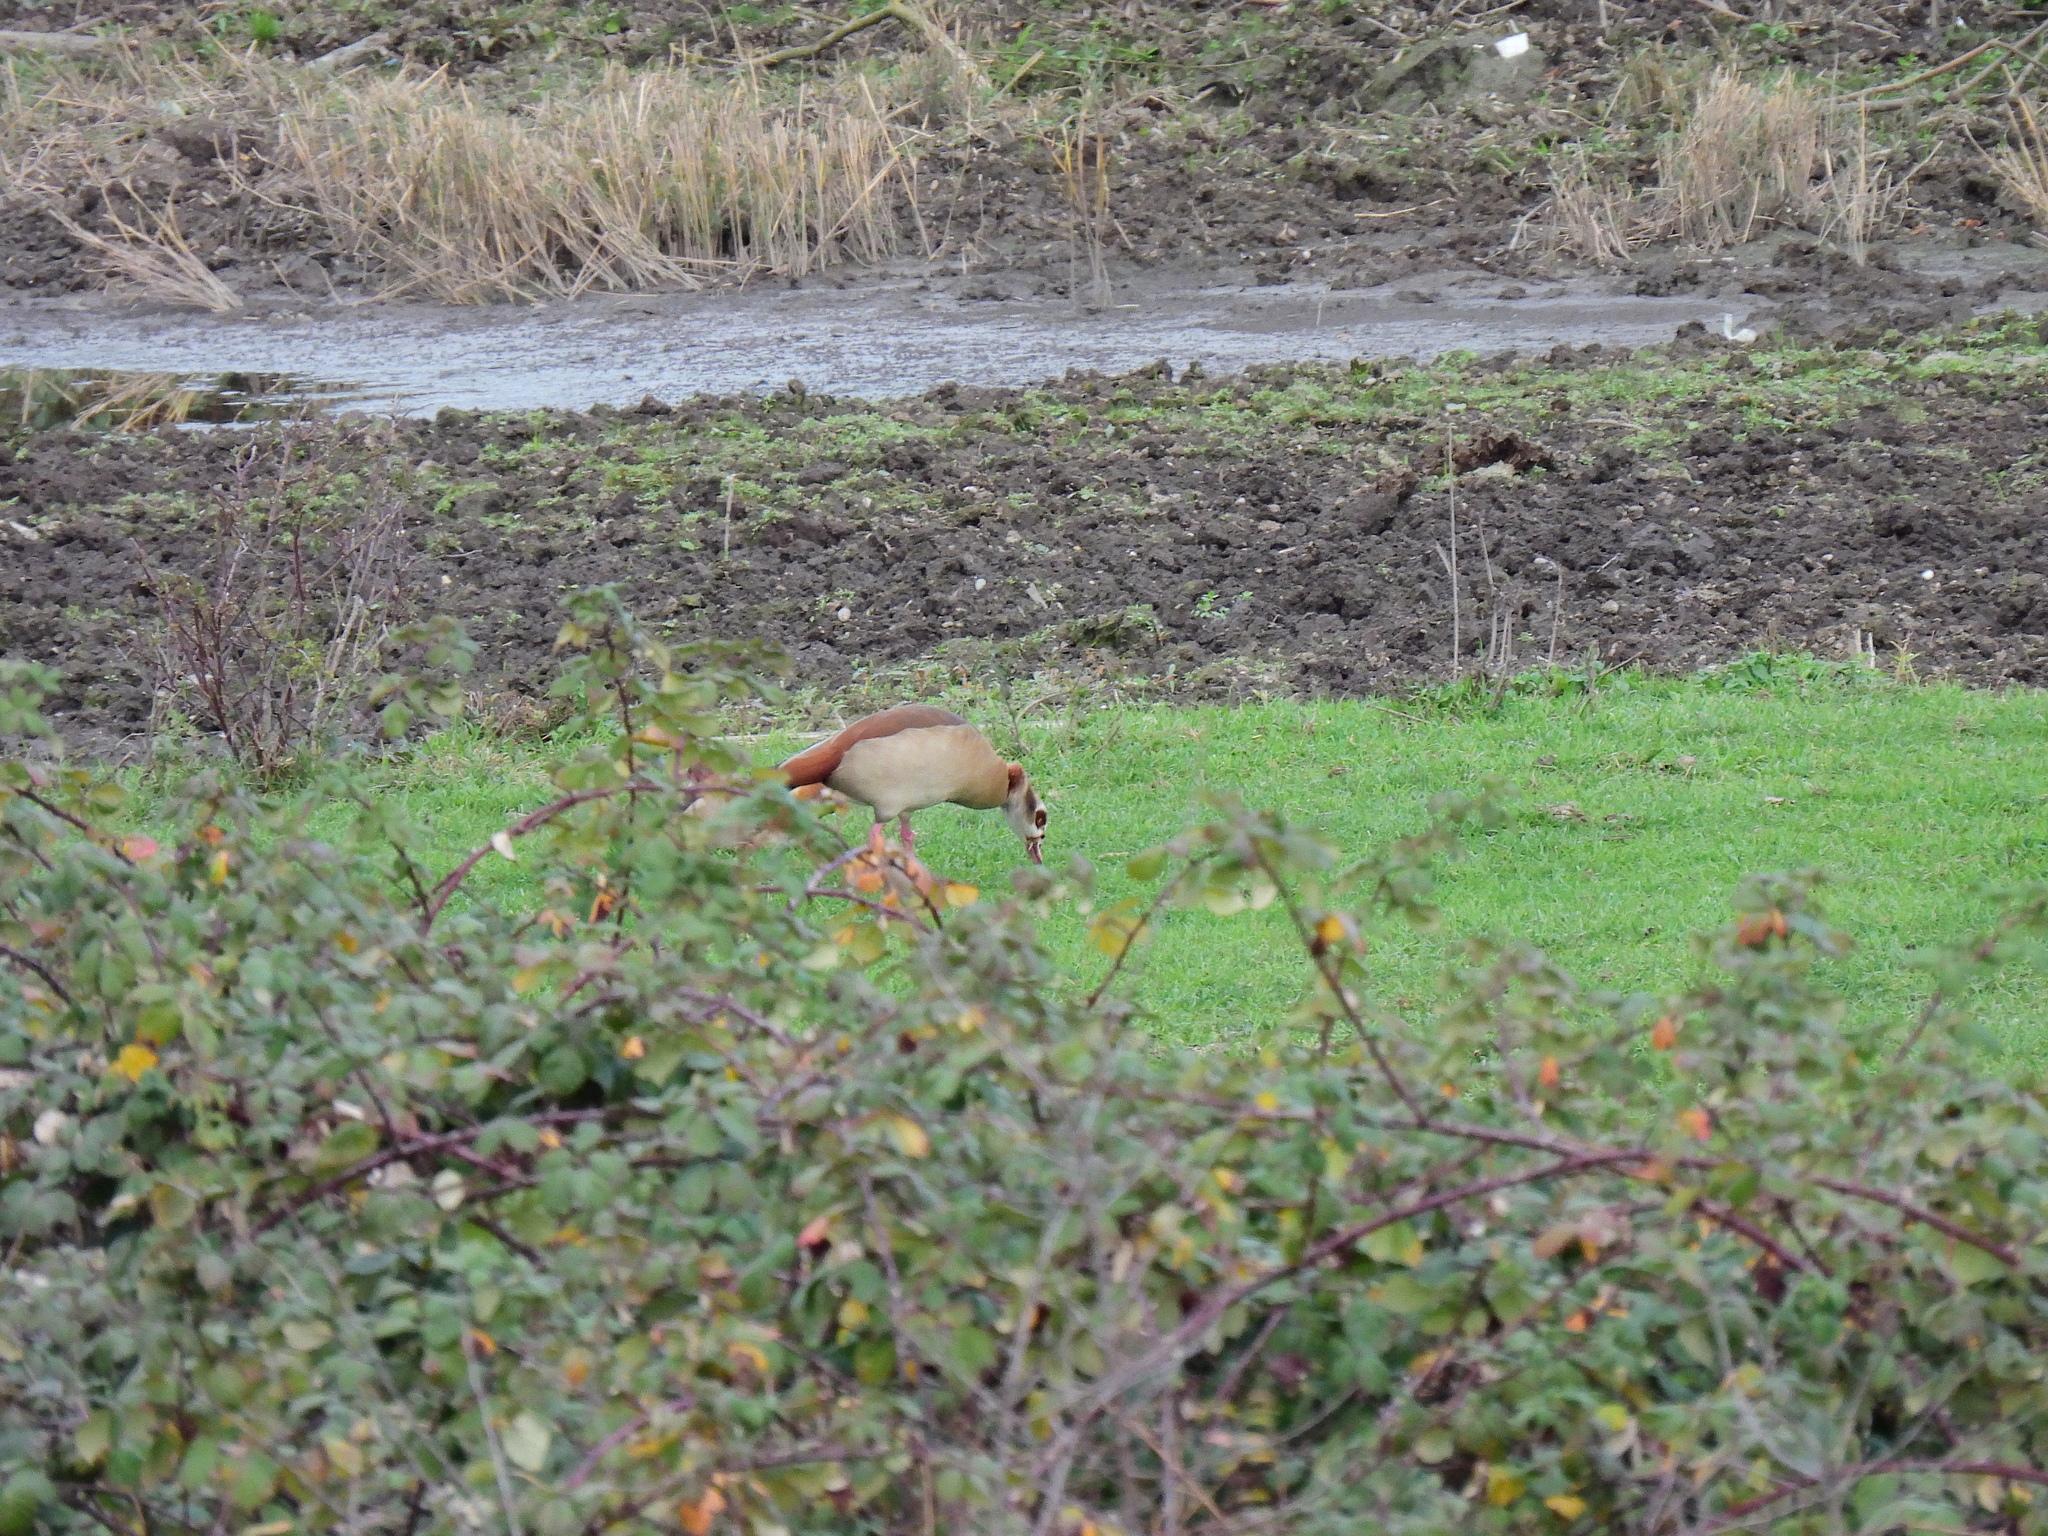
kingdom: Animalia
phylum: Chordata
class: Aves
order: Anseriformes
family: Anatidae
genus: Alopochen
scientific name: Alopochen aegyptiaca
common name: Egyptian goose
